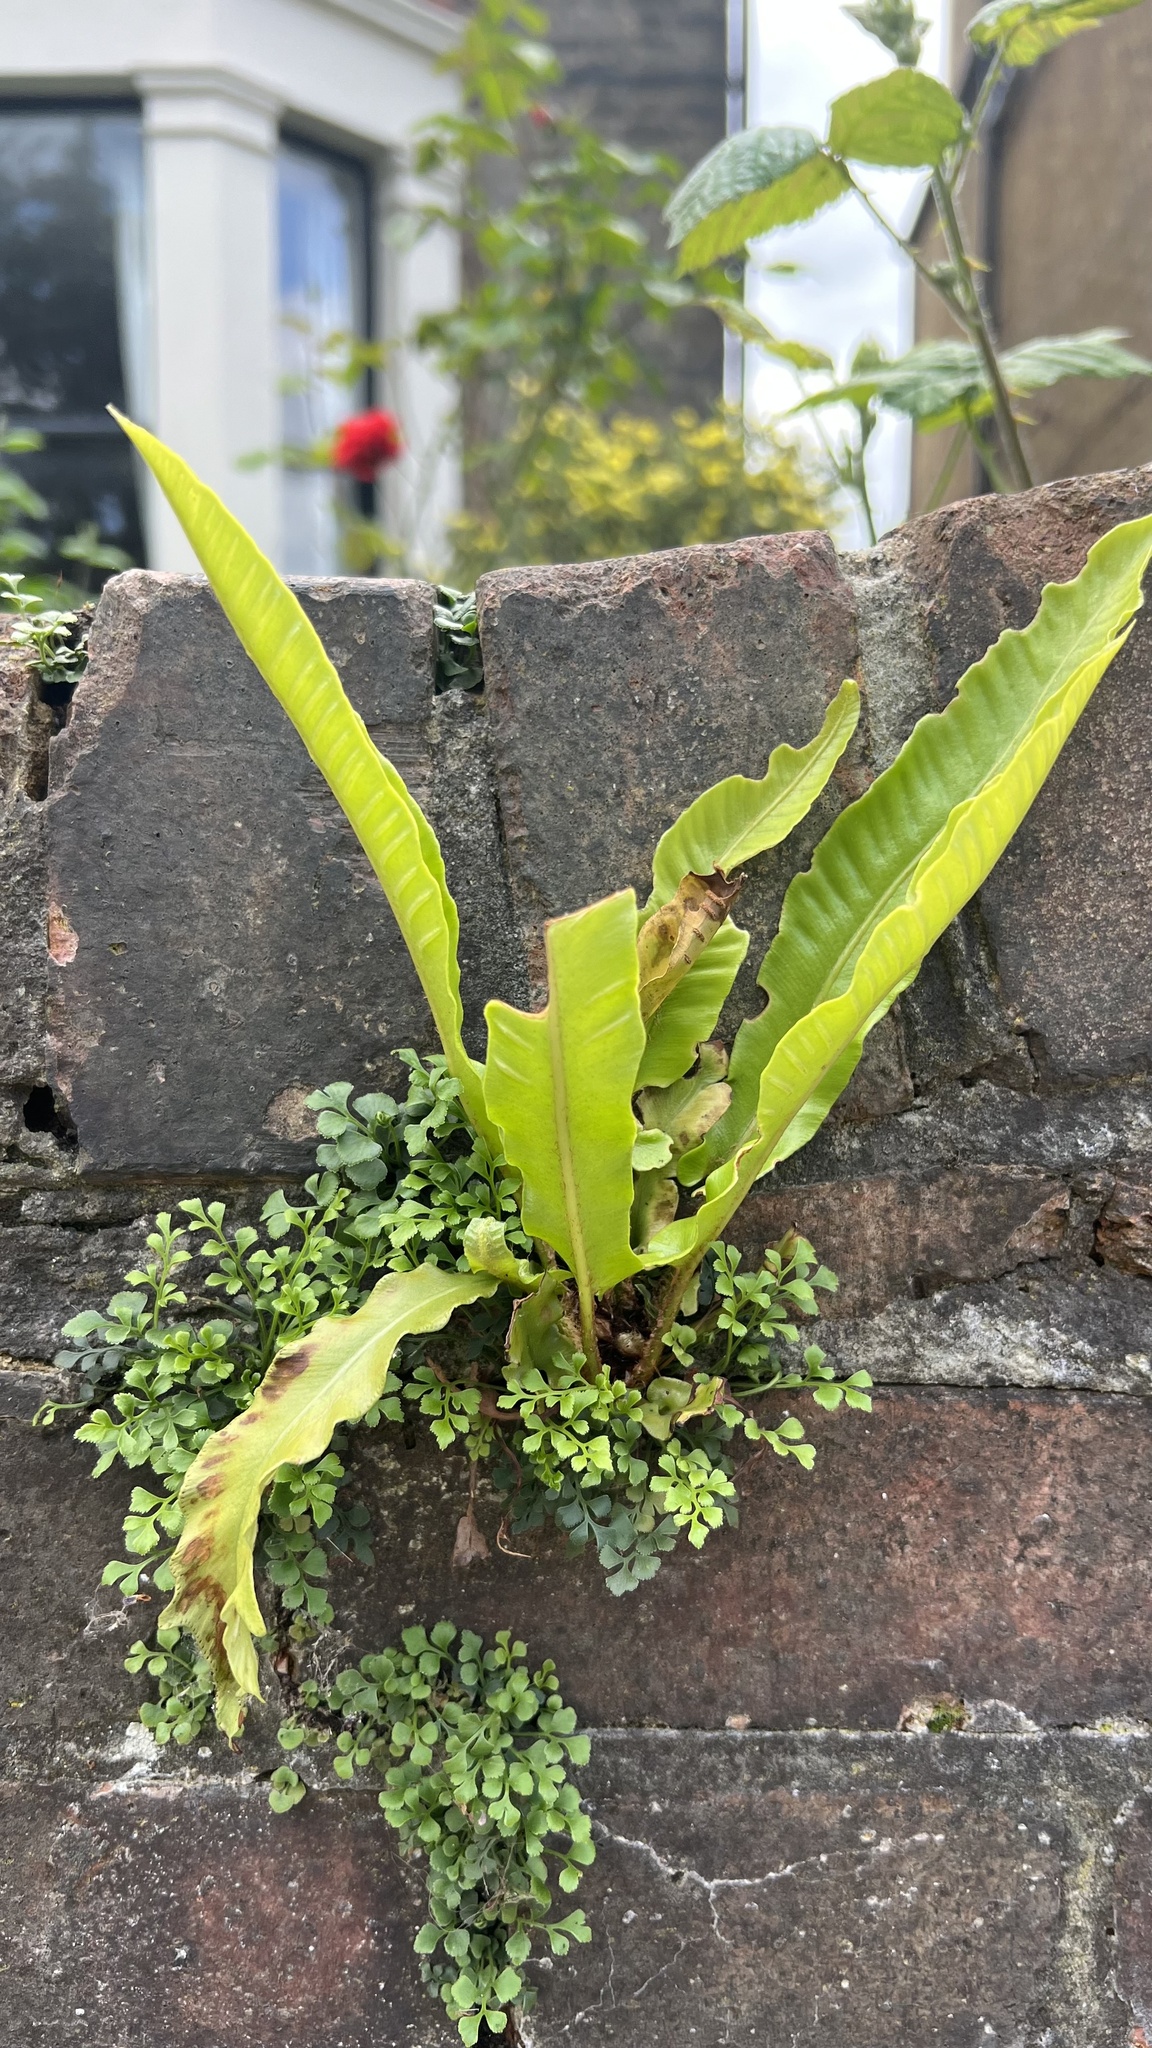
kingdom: Plantae
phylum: Tracheophyta
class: Polypodiopsida
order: Polypodiales
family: Aspleniaceae
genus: Asplenium
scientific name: Asplenium scolopendrium
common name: Hart's-tongue fern
